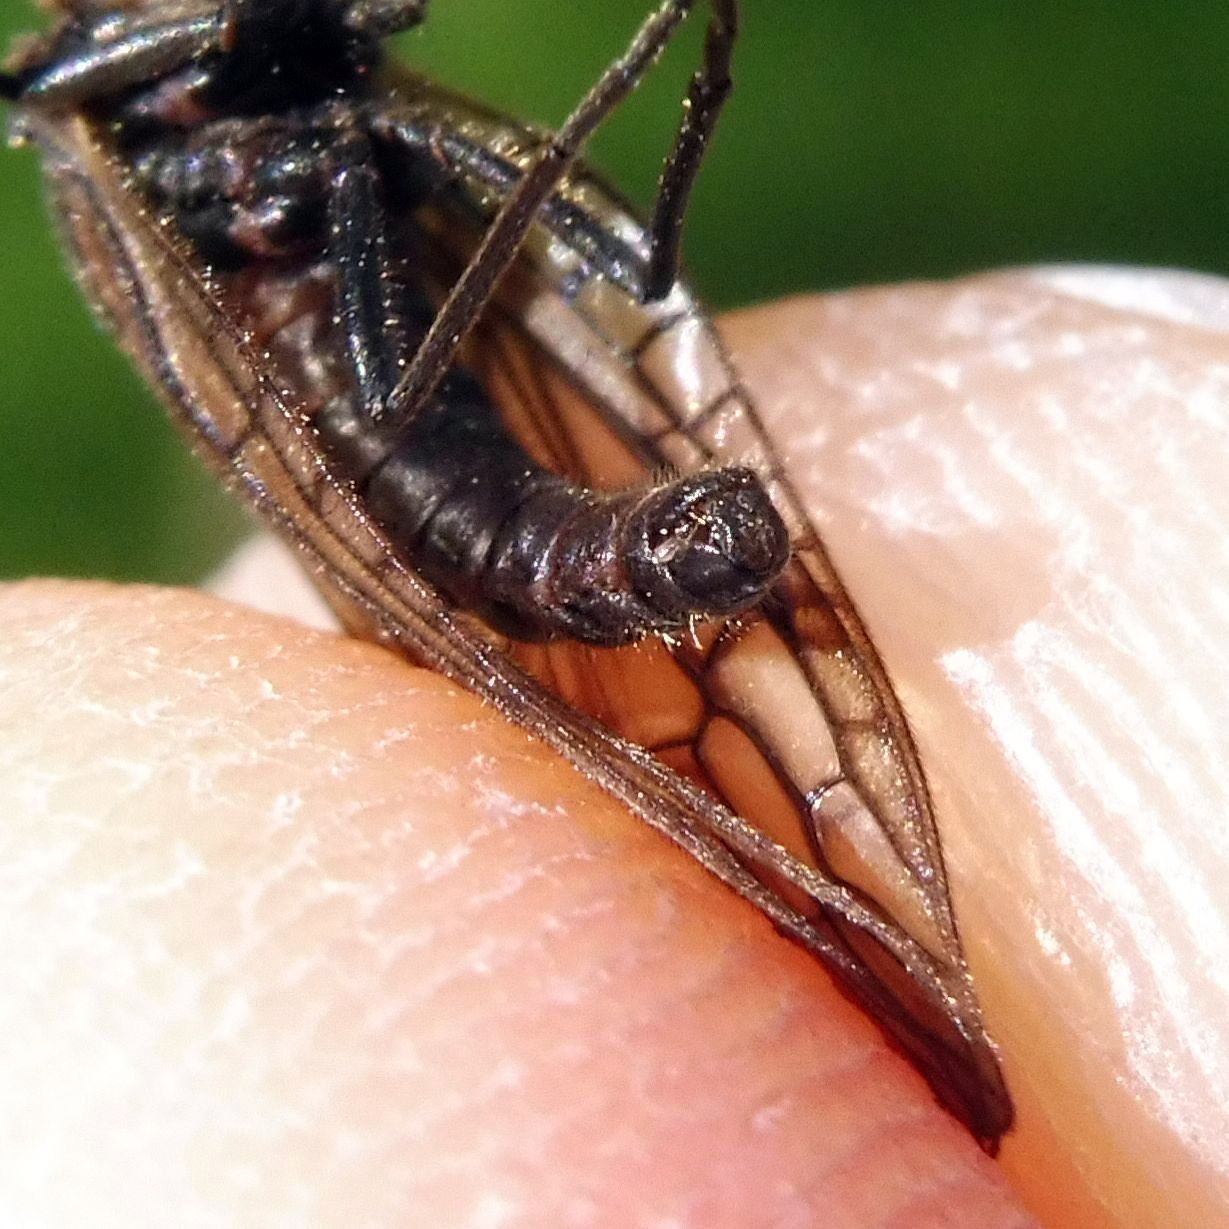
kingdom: Animalia
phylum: Arthropoda
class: Insecta
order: Megaloptera
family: Sialidae
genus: Sialis
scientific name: Sialis lutaria
